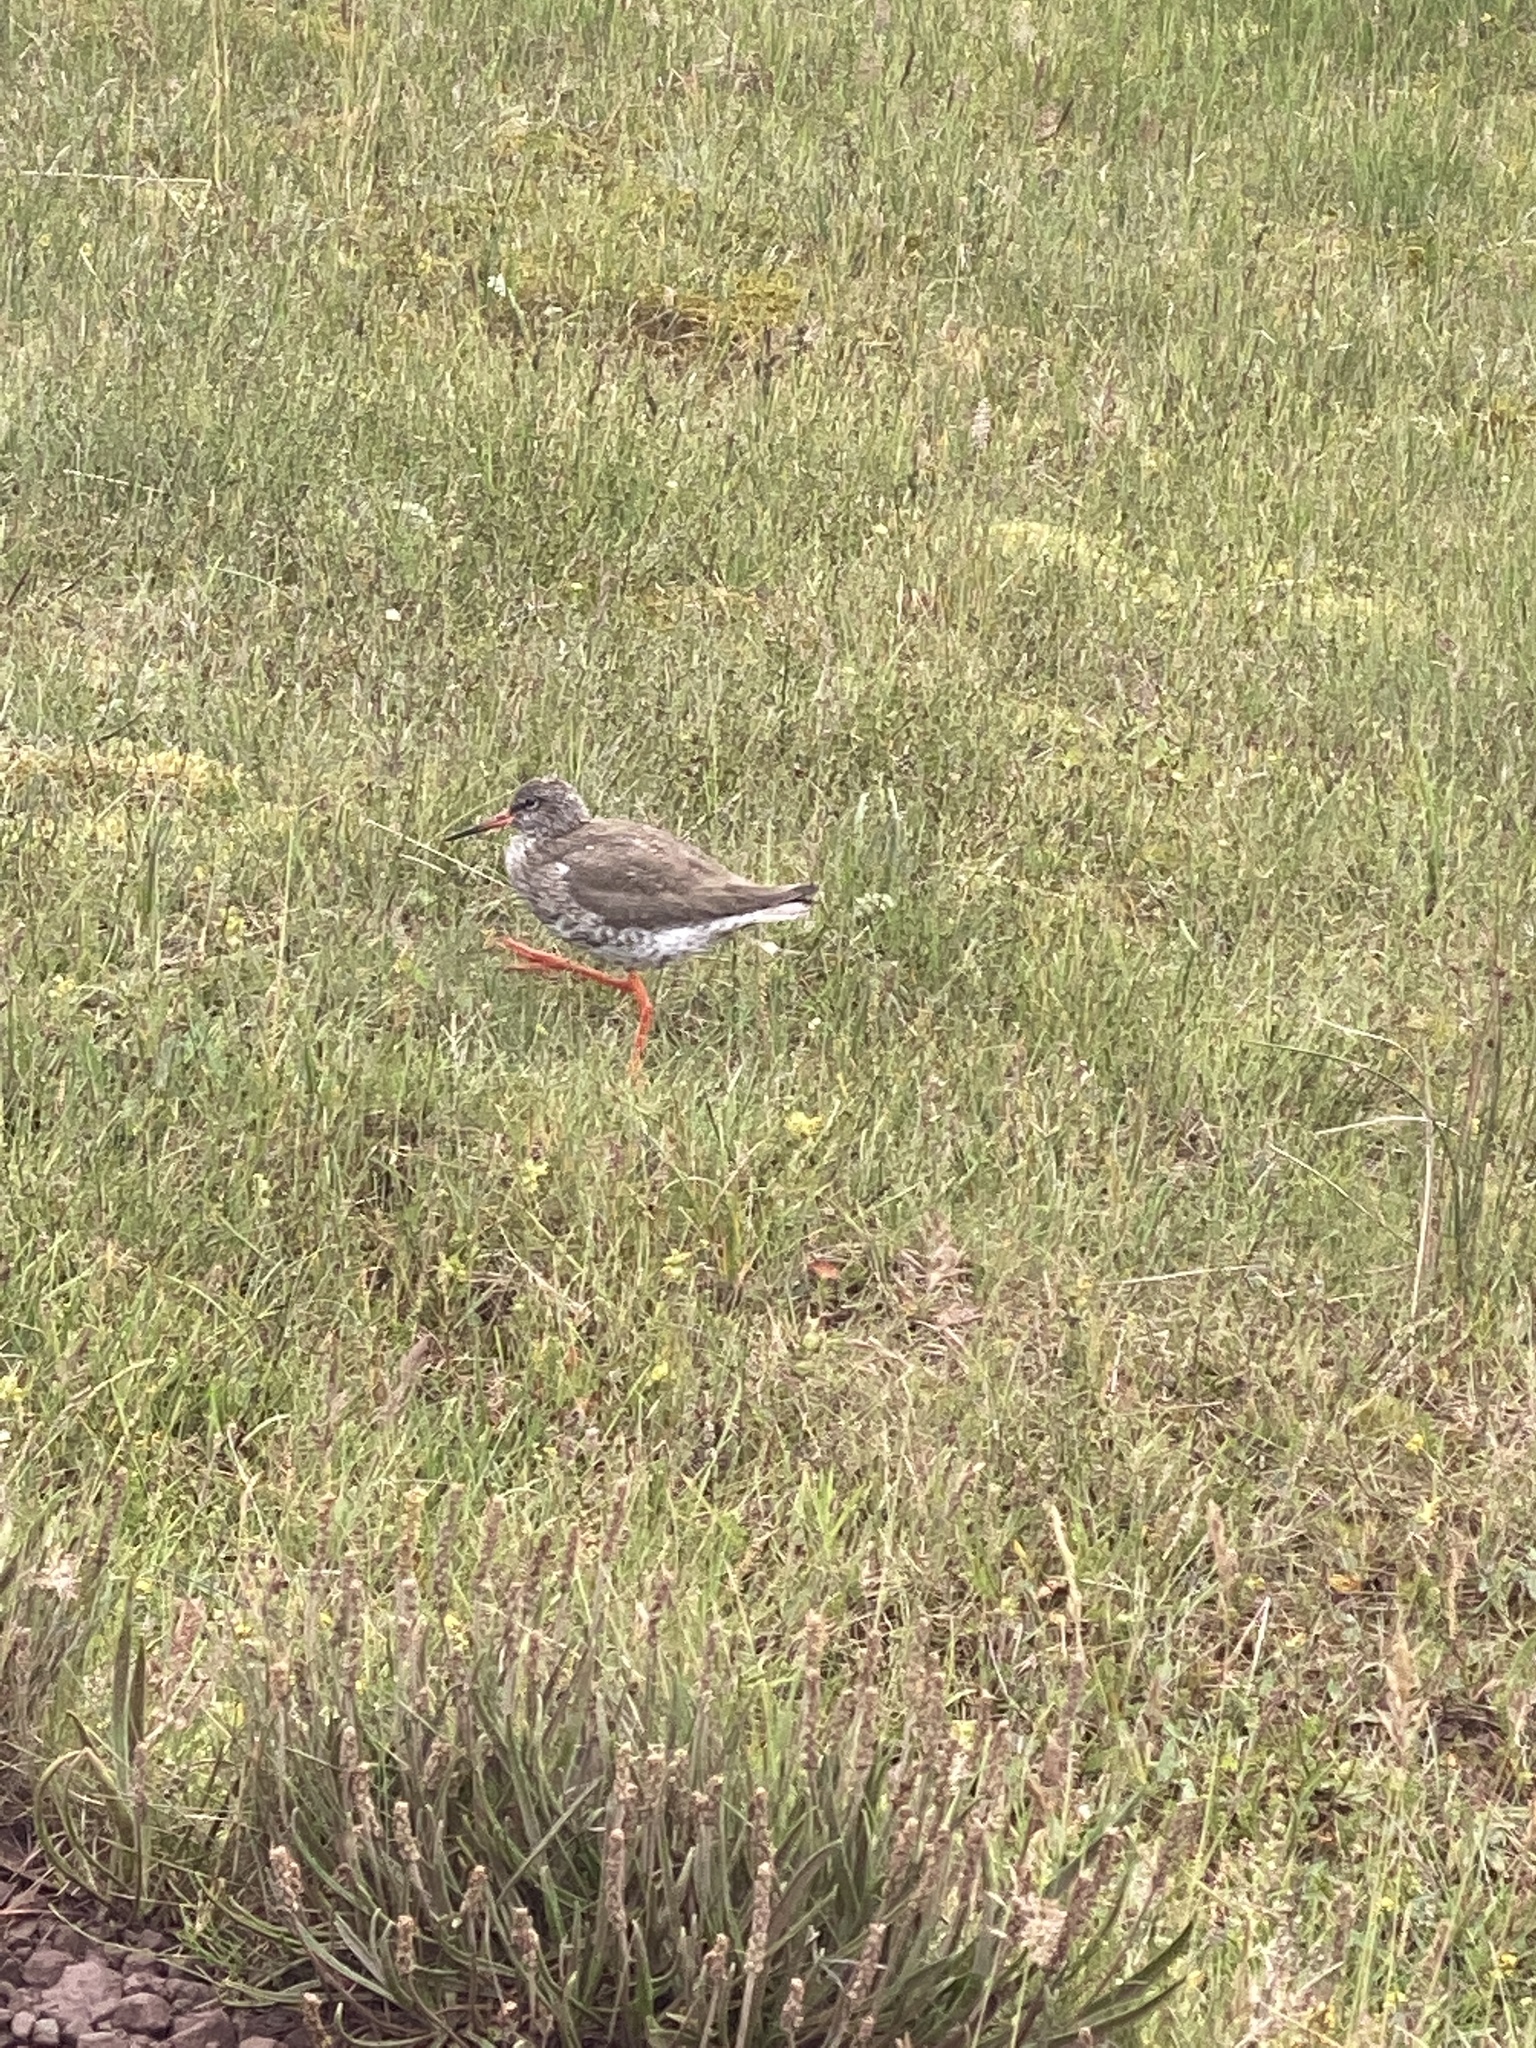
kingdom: Animalia
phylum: Chordata
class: Aves
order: Charadriiformes
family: Scolopacidae
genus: Tringa
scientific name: Tringa totanus
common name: Common redshank
